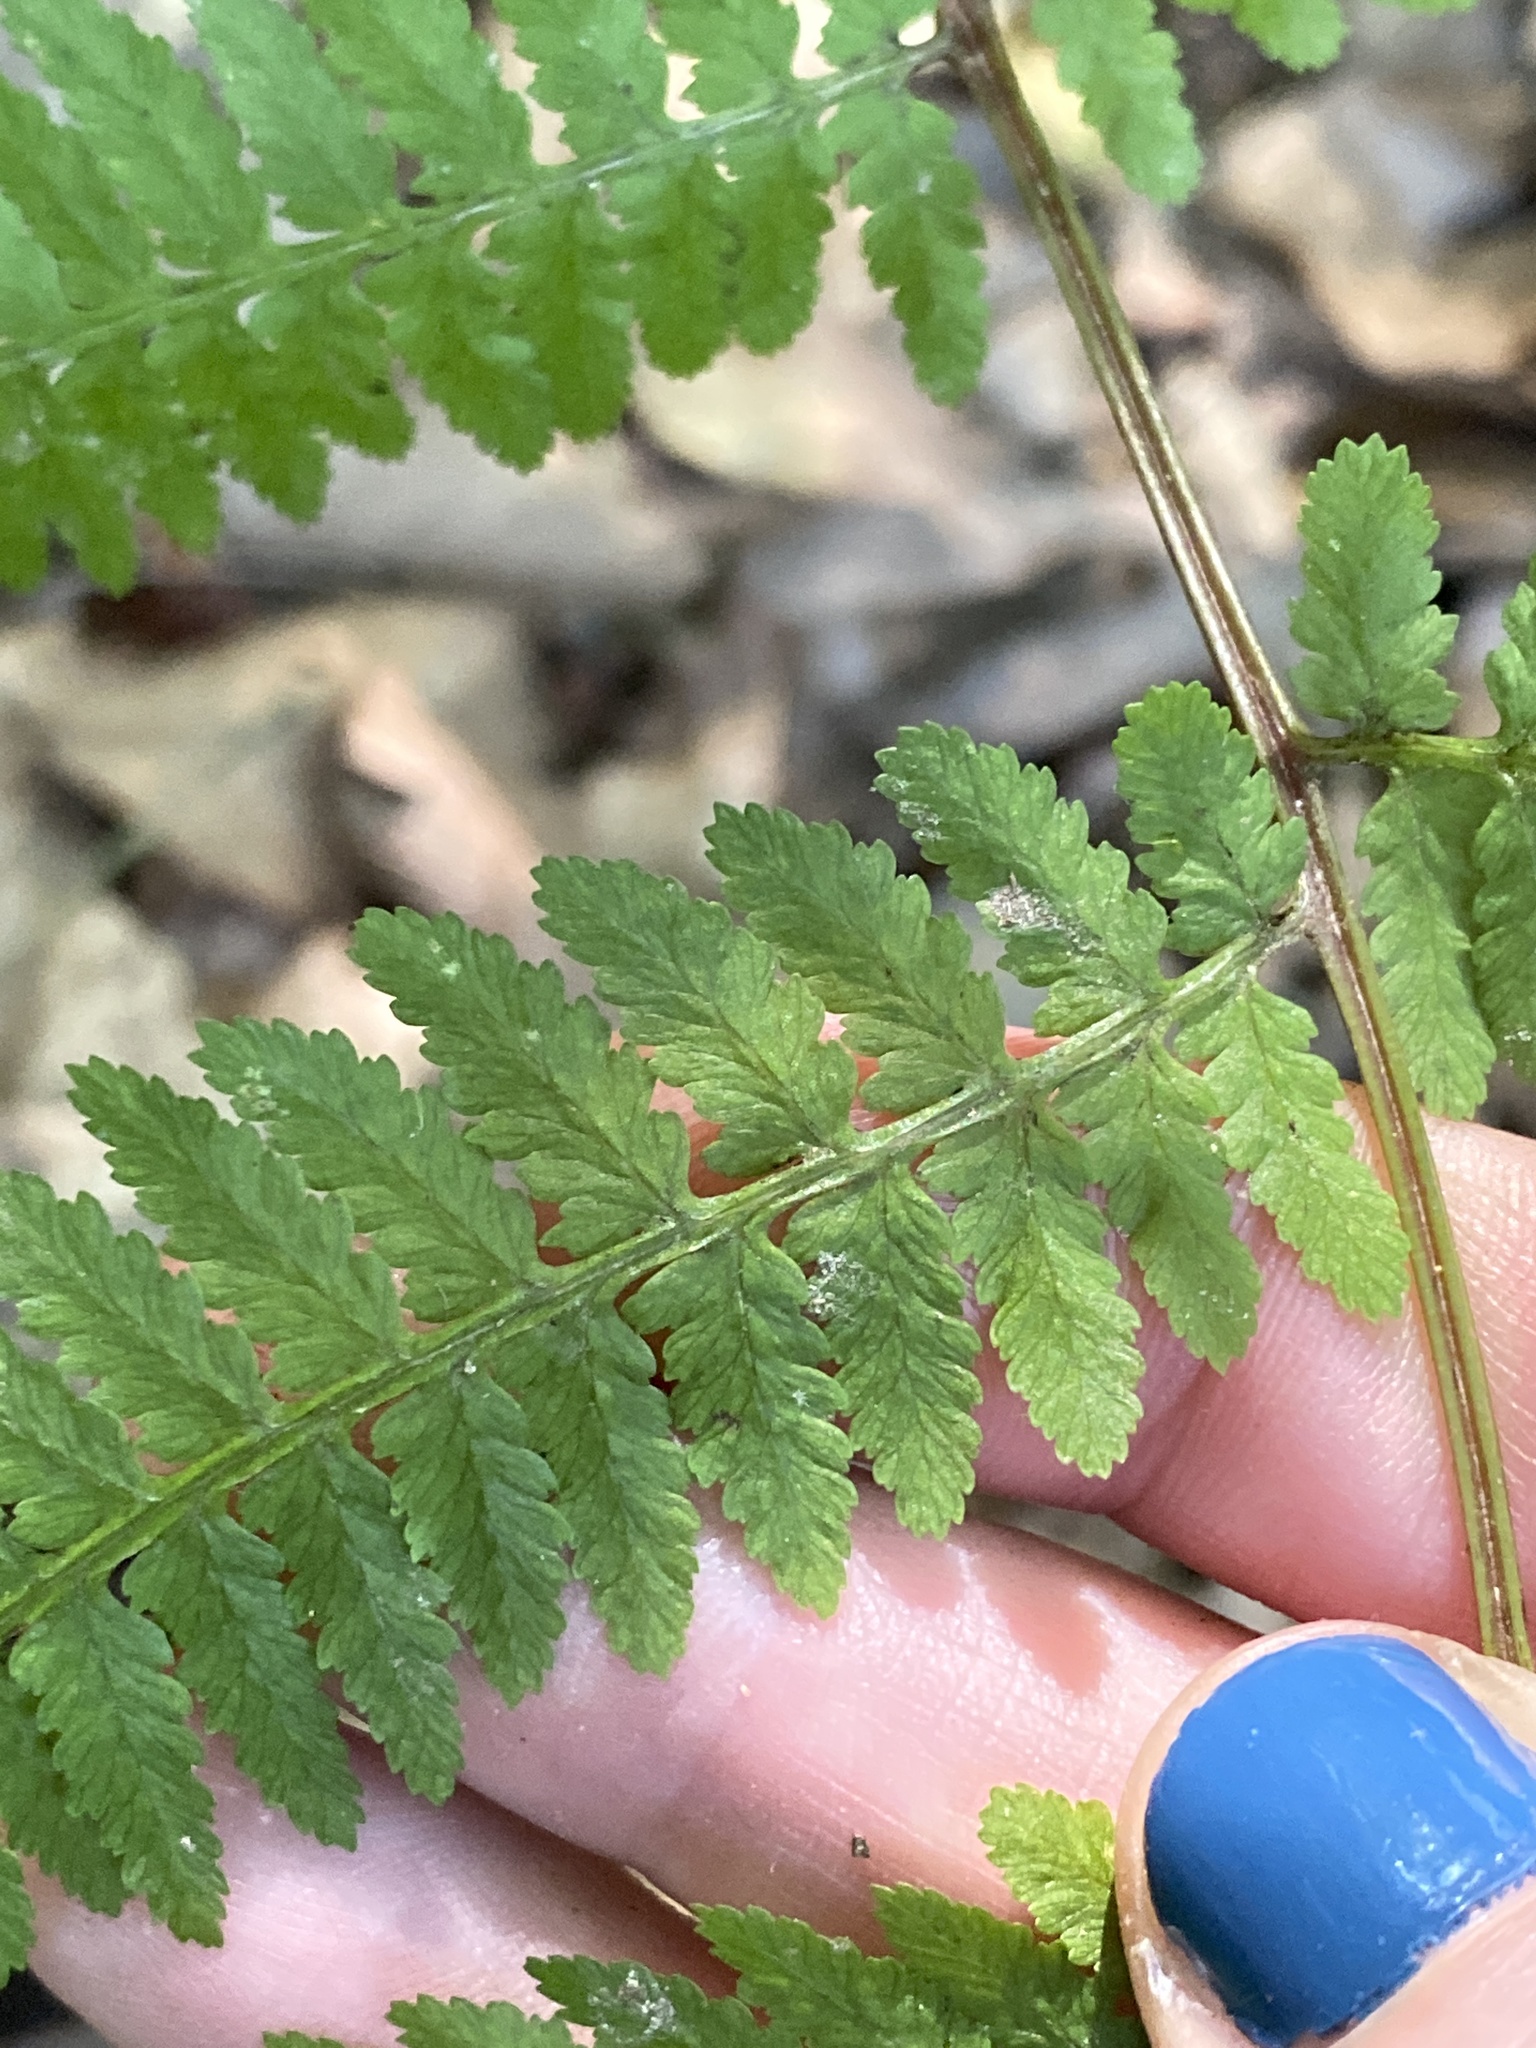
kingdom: Plantae
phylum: Tracheophyta
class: Polypodiopsida
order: Polypodiales
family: Athyriaceae
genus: Athyrium
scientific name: Athyrium asplenioides
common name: Southern lady fern
